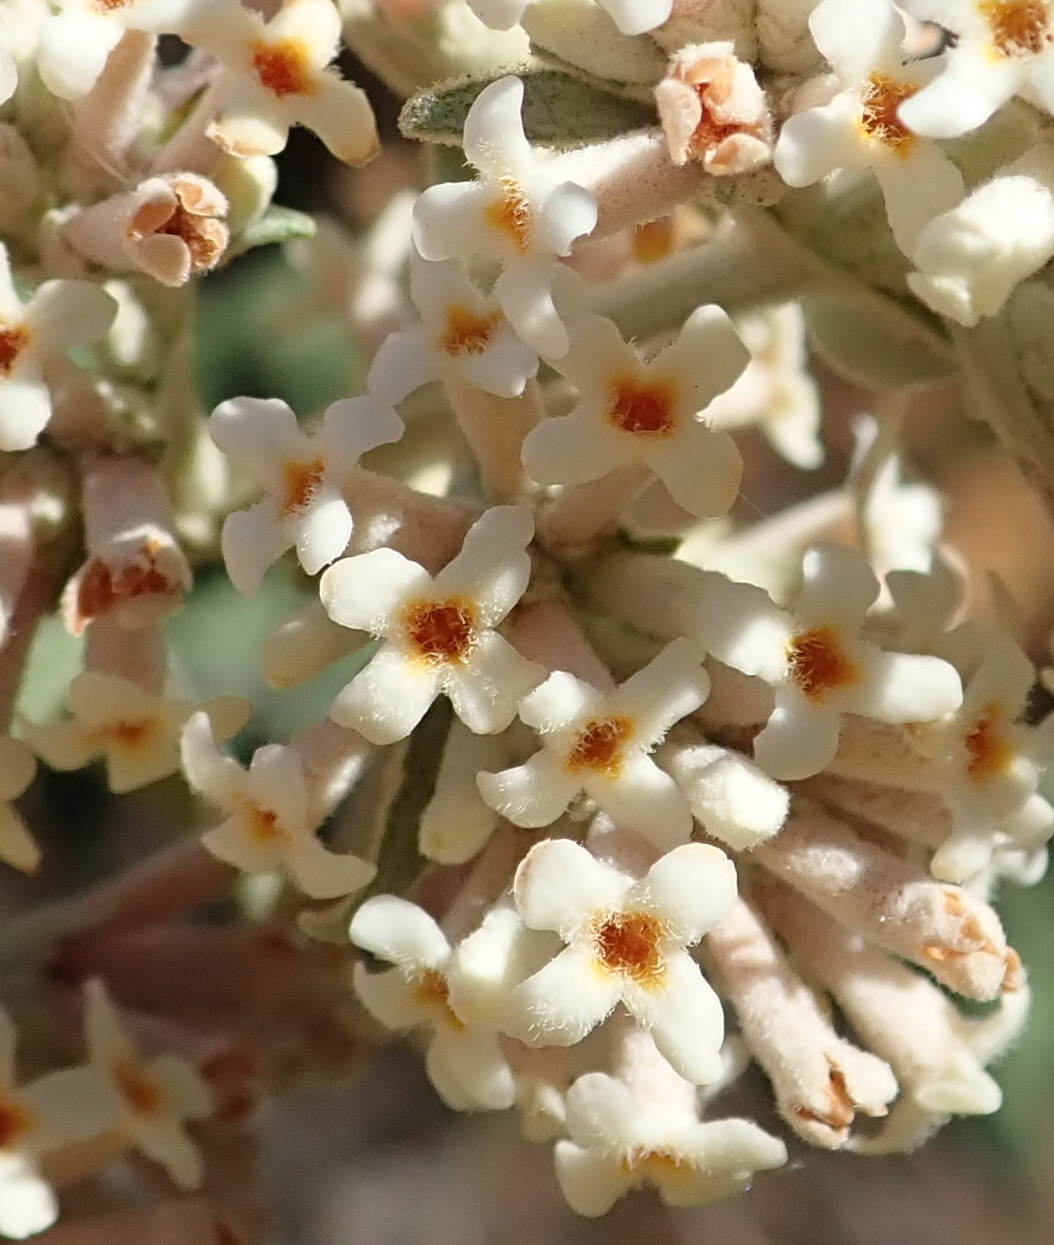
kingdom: Plantae
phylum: Tracheophyta
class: Magnoliopsida
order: Lamiales
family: Scrophulariaceae
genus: Buddleja
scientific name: Buddleja salviifolia
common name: Sagewood
